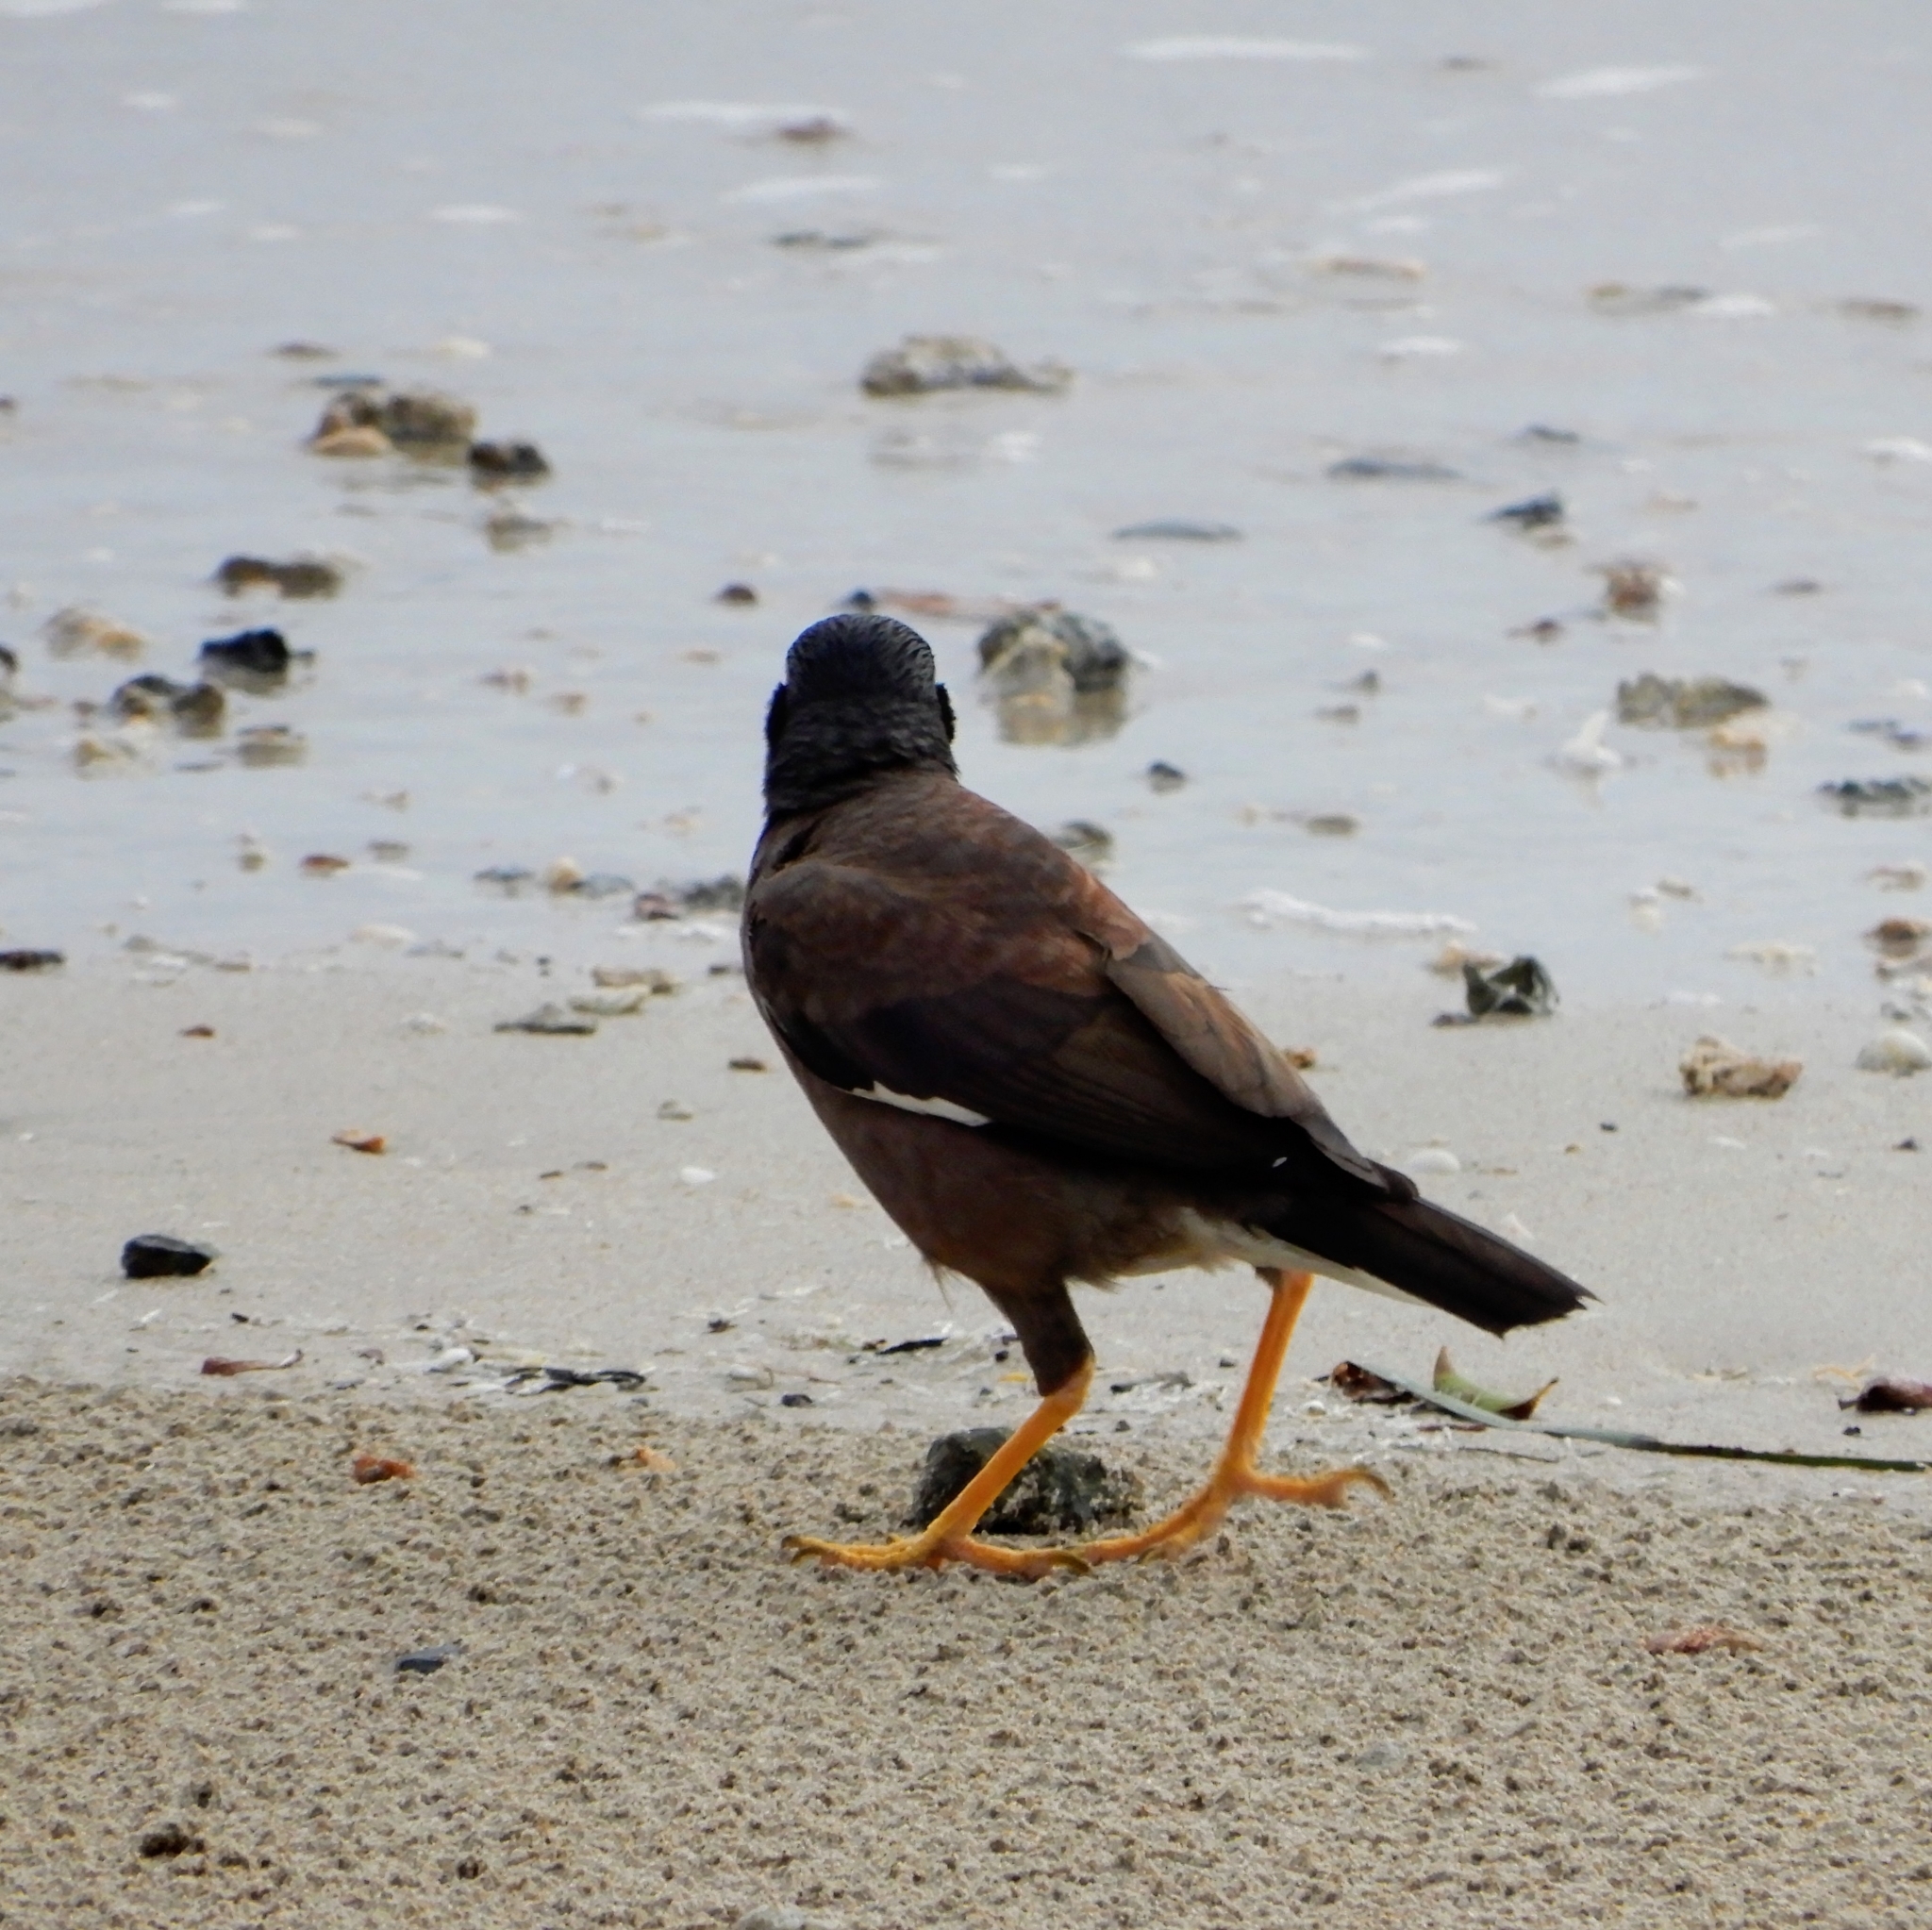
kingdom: Animalia
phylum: Chordata
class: Aves
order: Passeriformes
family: Sturnidae
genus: Acridotheres
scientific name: Acridotheres tristis
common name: Common myna
